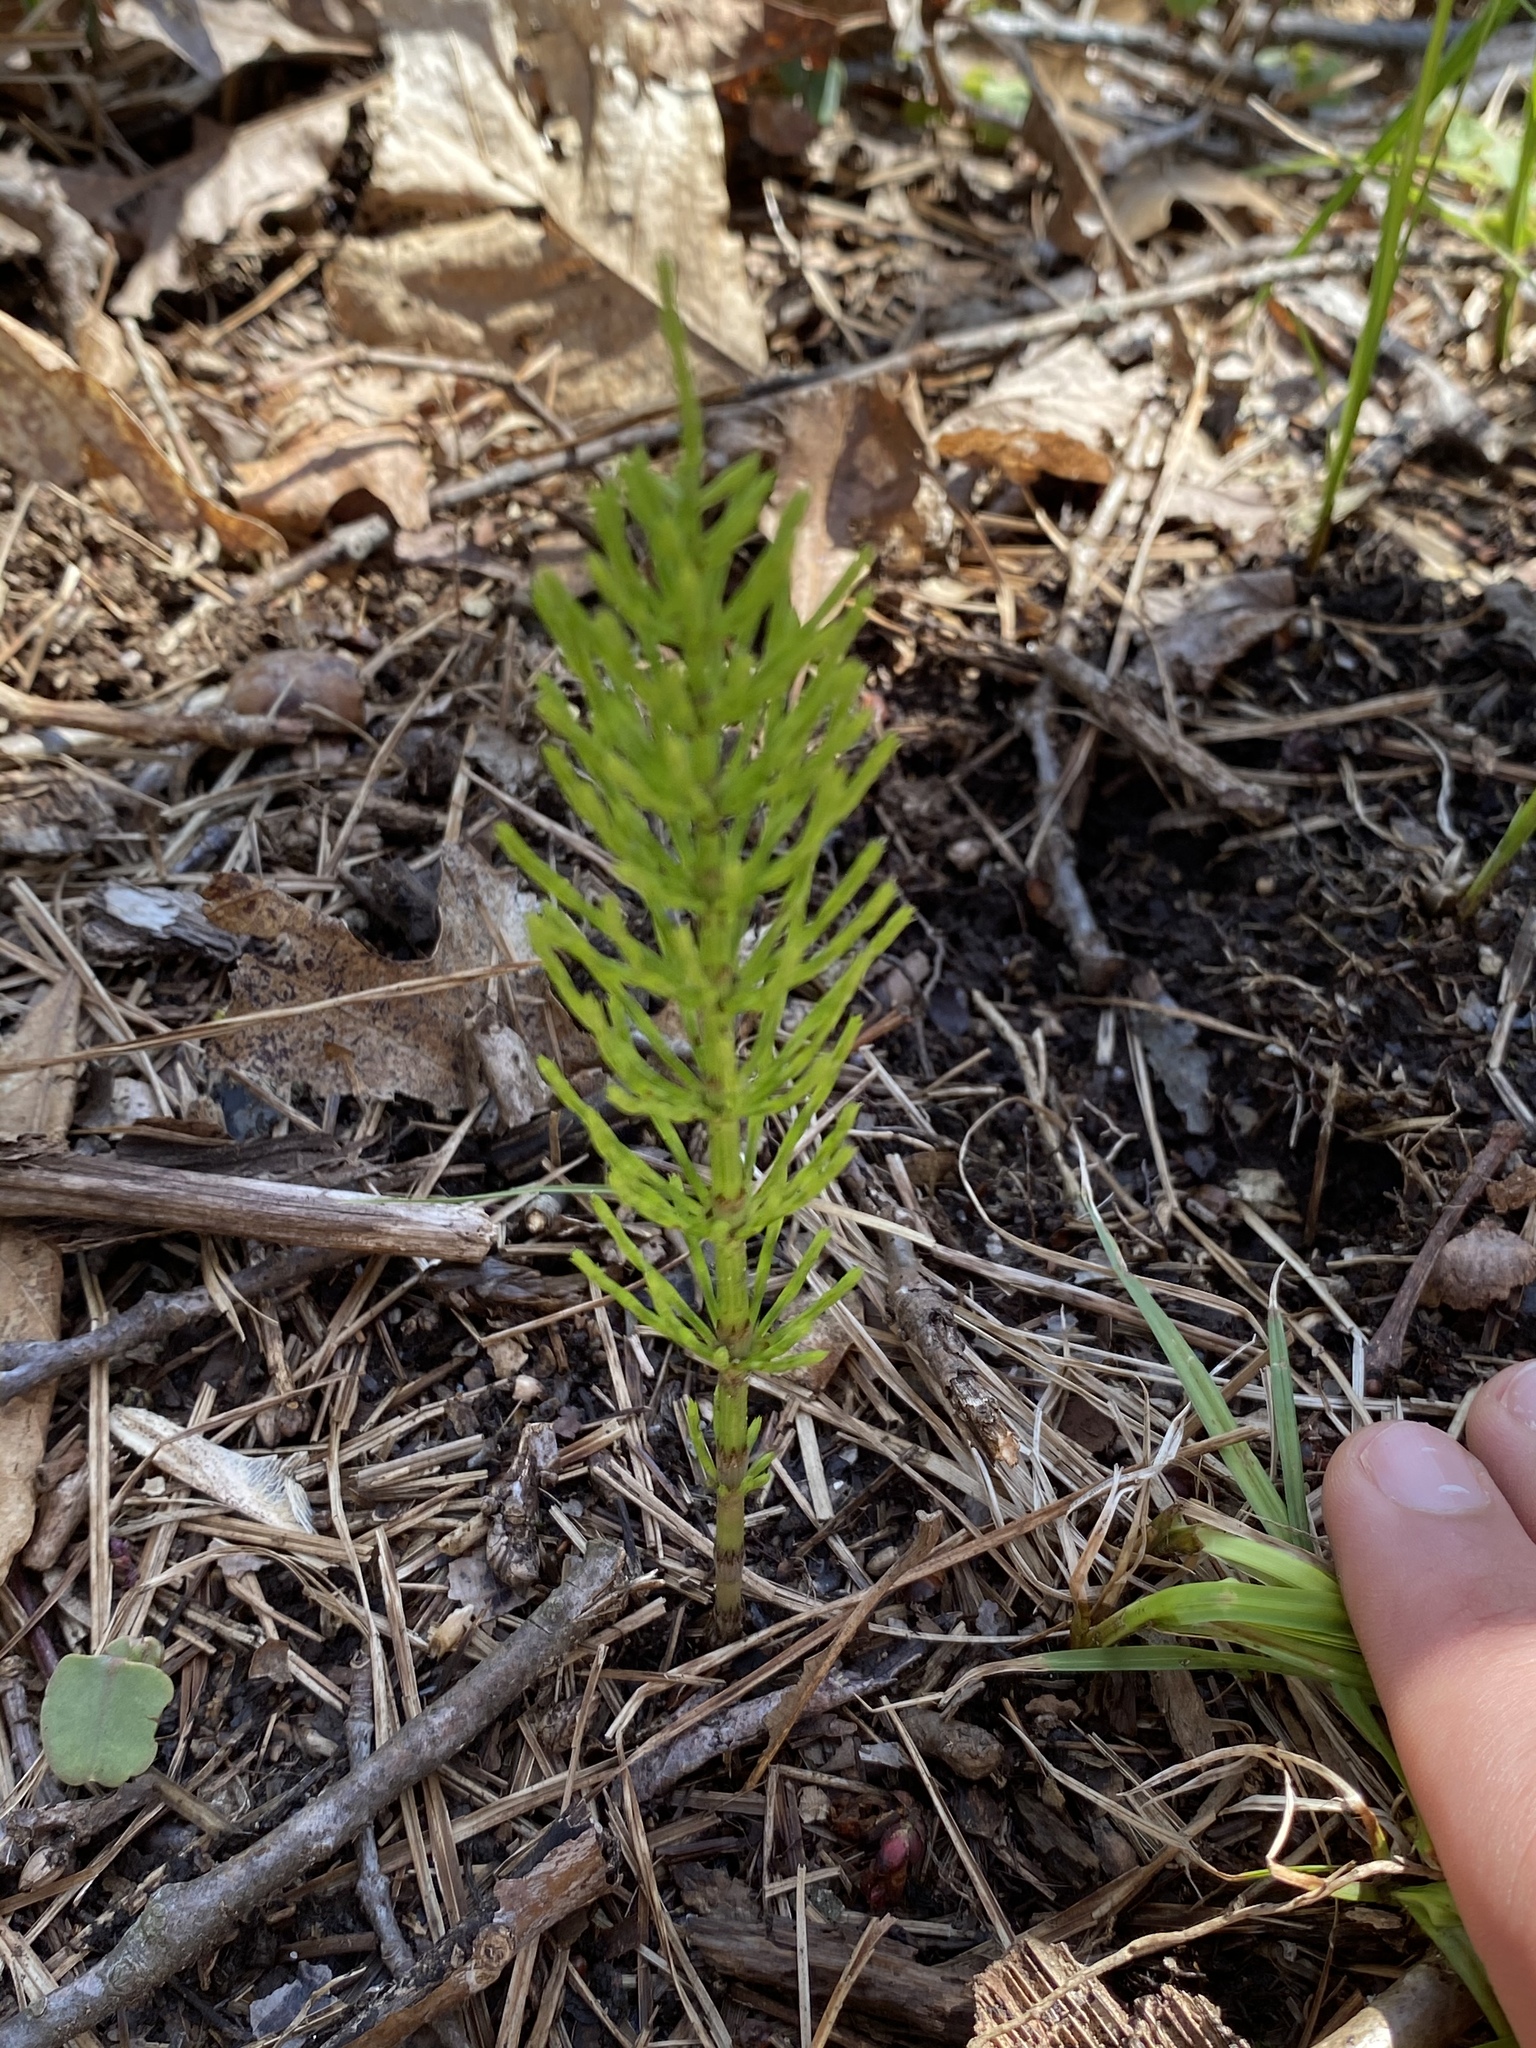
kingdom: Plantae
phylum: Tracheophyta
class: Polypodiopsida
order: Equisetales
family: Equisetaceae
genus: Equisetum
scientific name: Equisetum arvense
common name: Field horsetail
